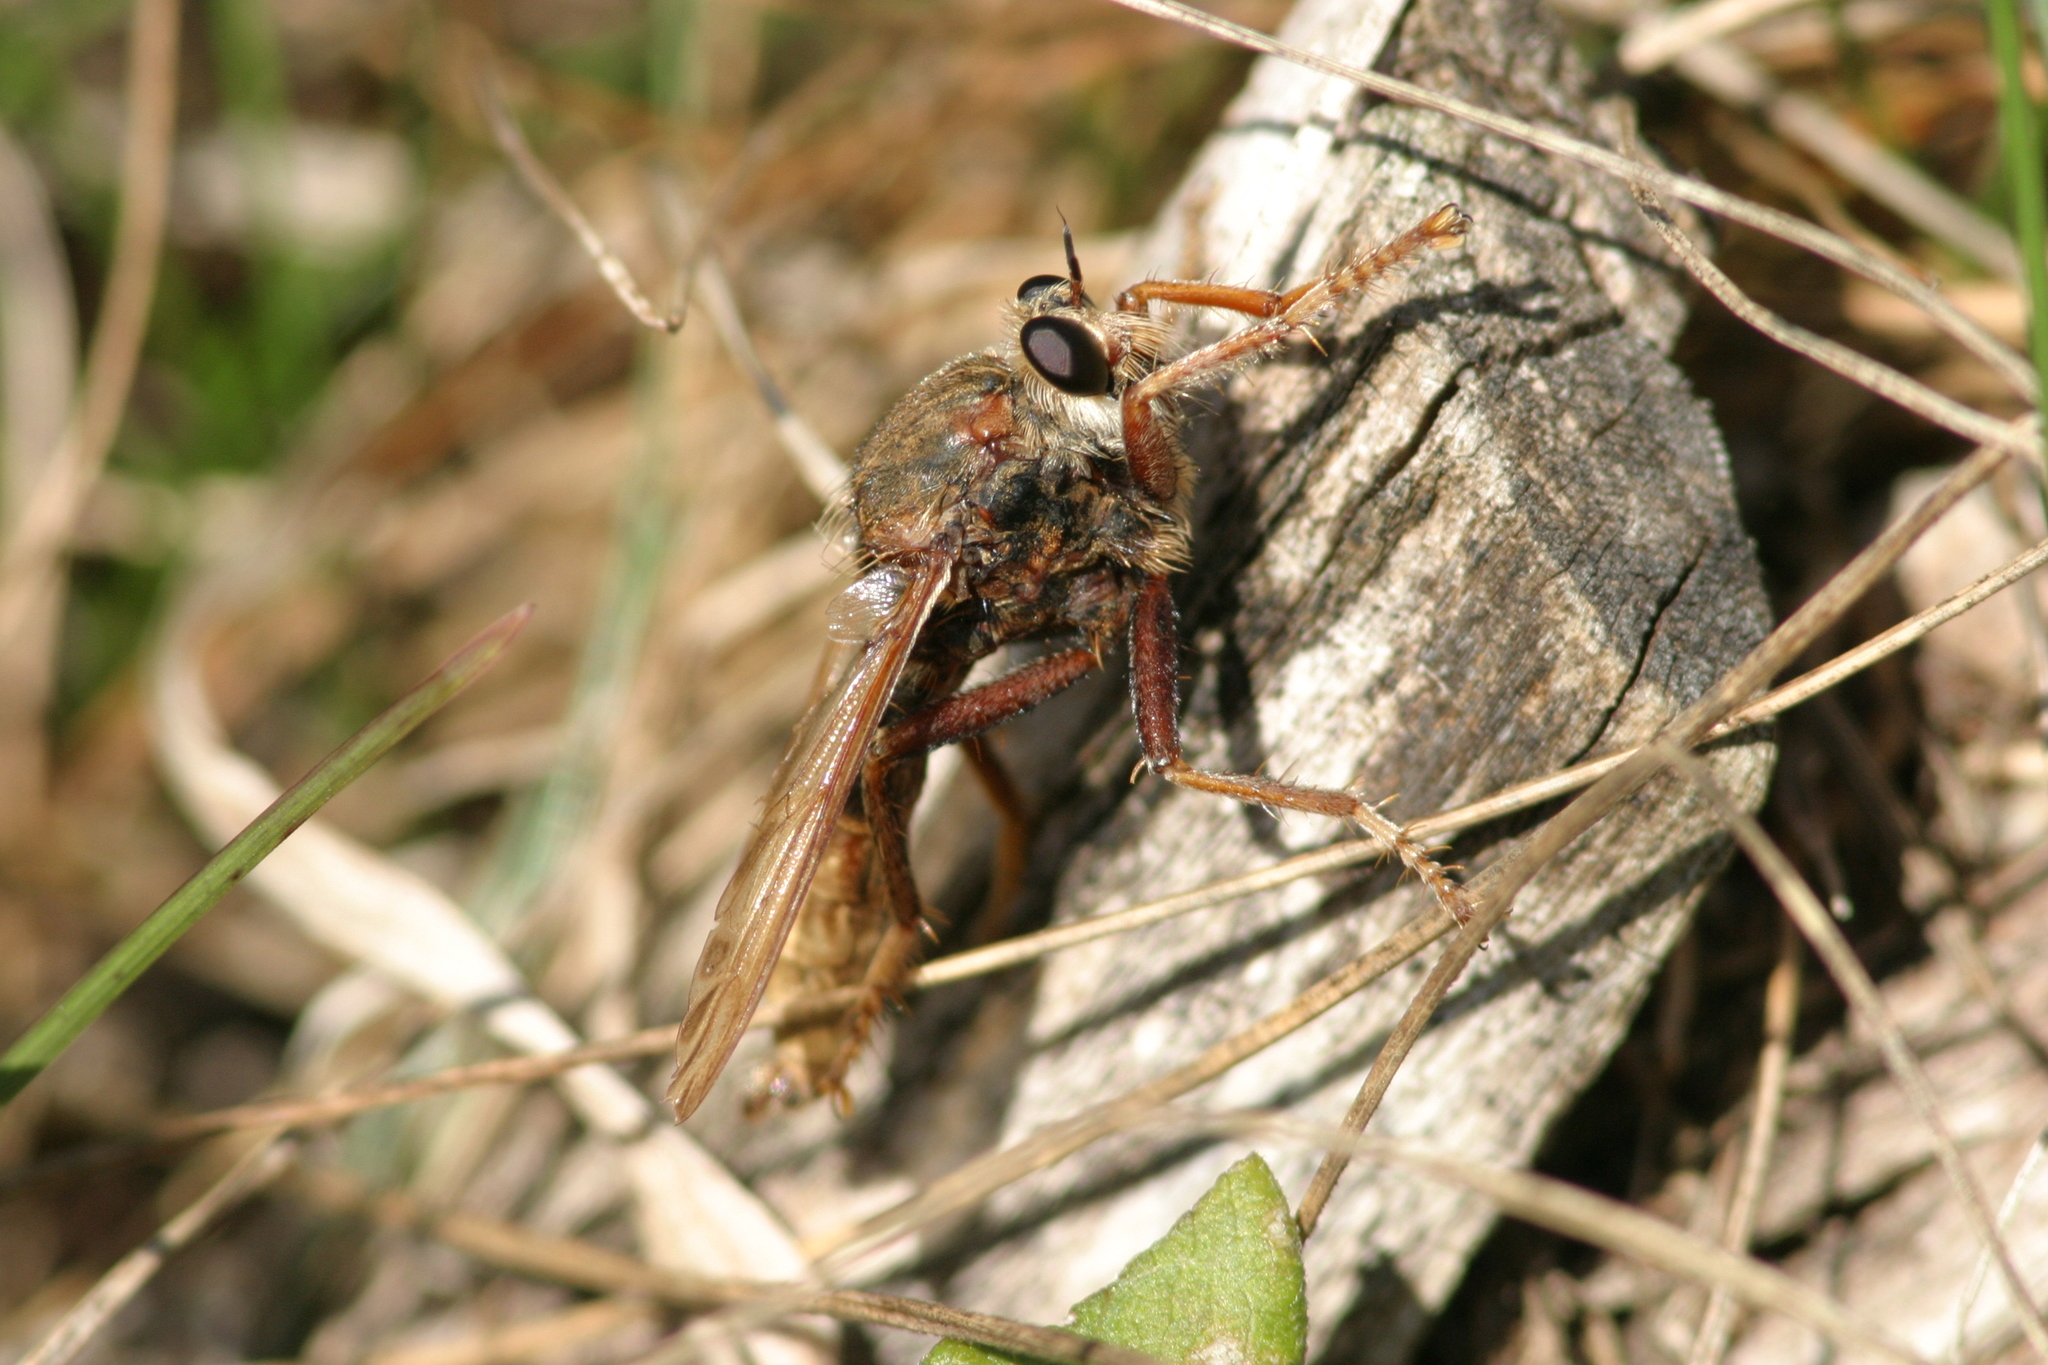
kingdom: Animalia
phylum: Arthropoda
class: Insecta
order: Diptera
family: Asilidae
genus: Asilus
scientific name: Asilus crabroniformis
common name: Hornet robberfly
